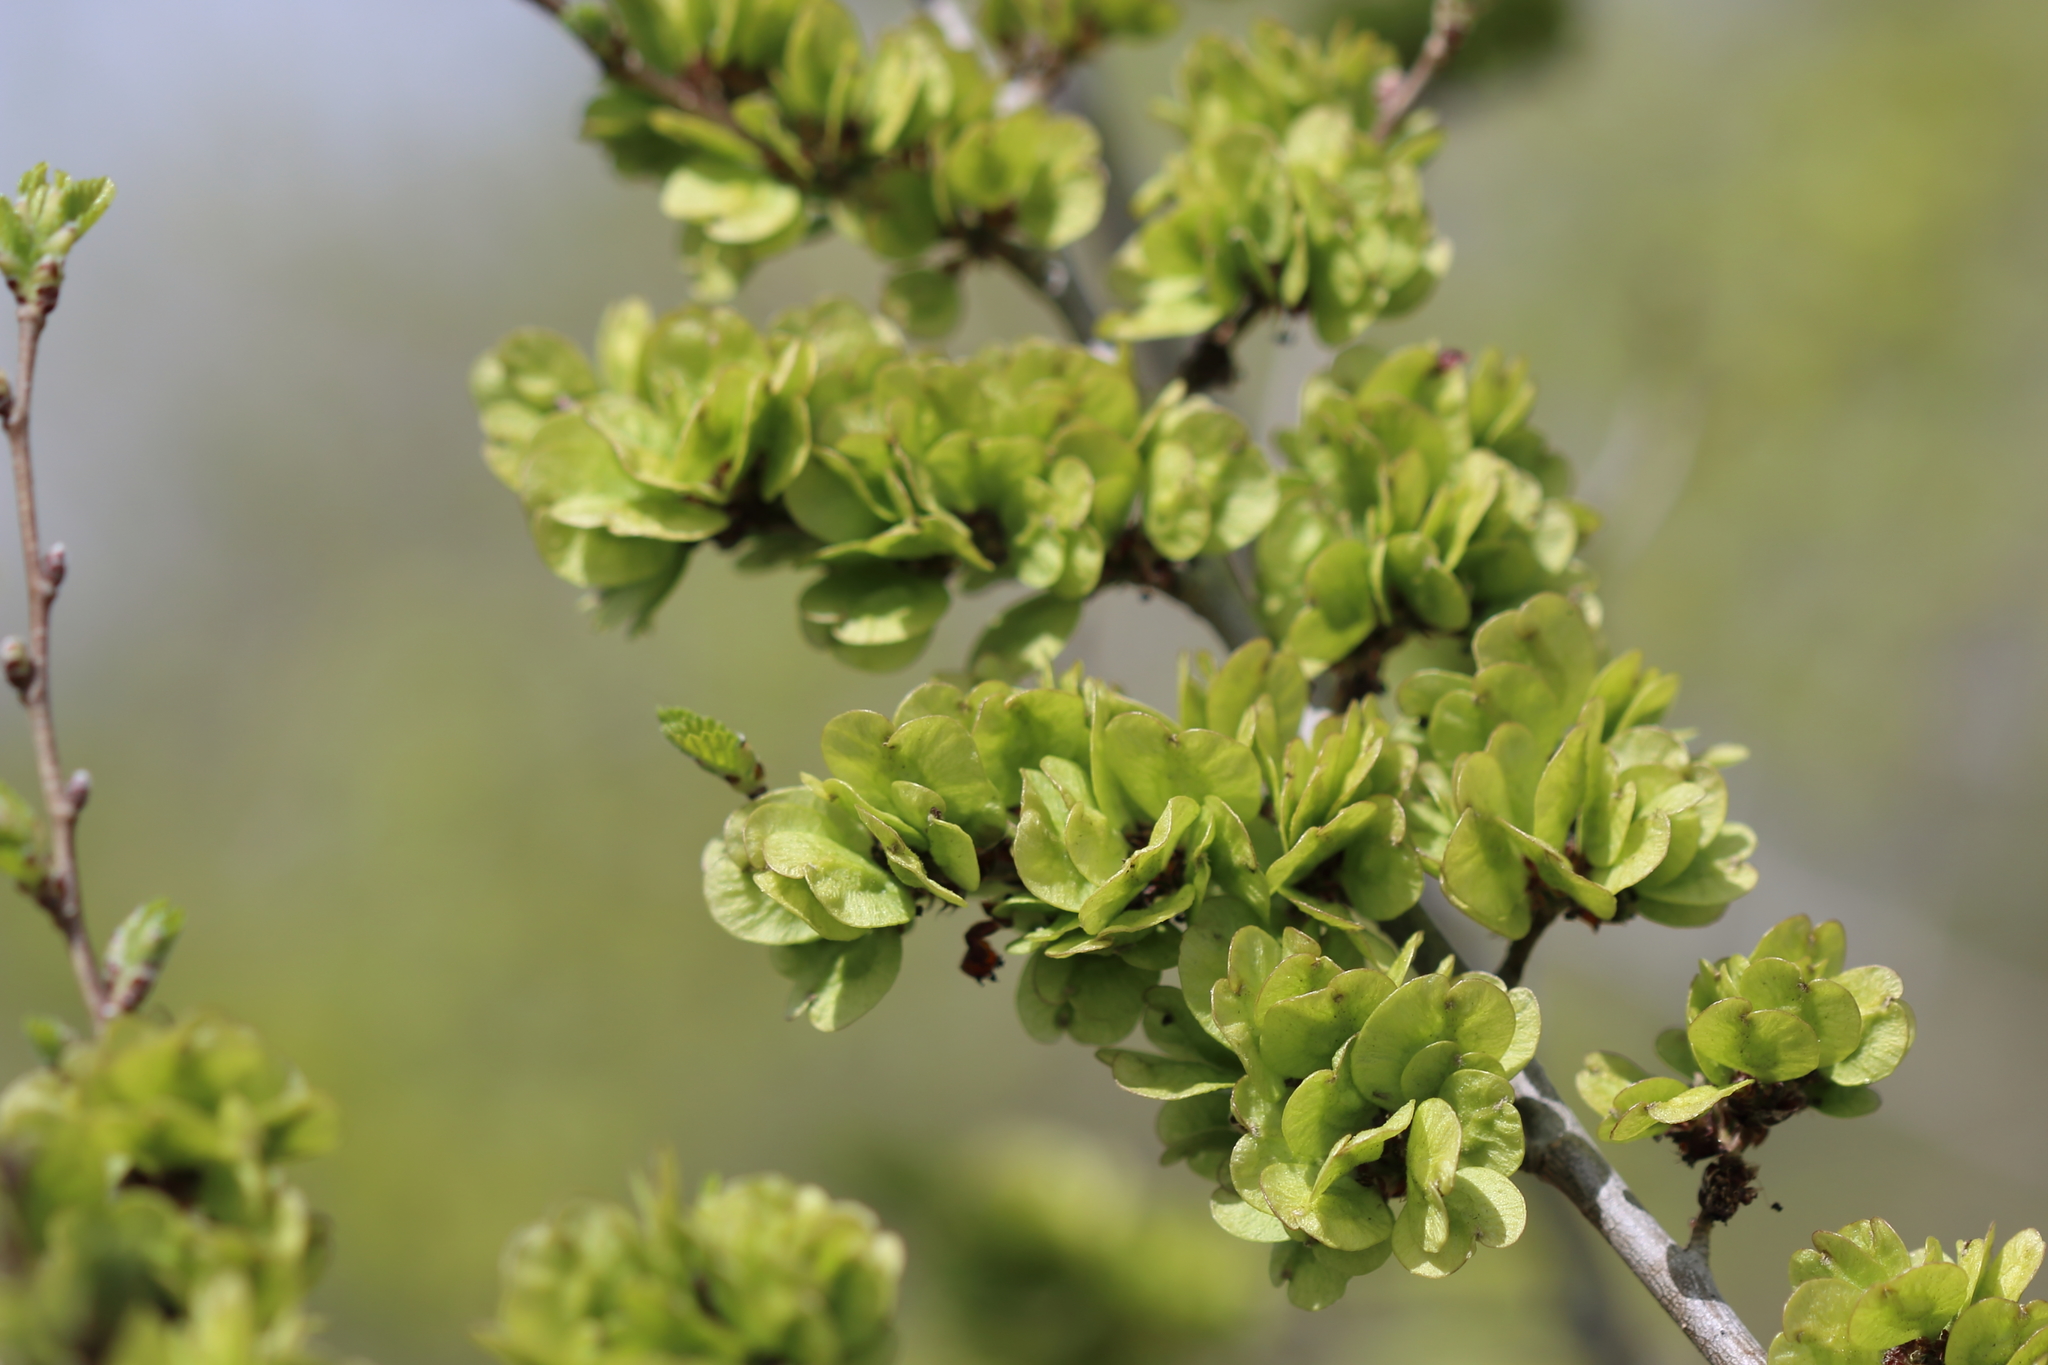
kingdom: Plantae
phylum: Tracheophyta
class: Magnoliopsida
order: Rosales
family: Ulmaceae
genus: Ulmus
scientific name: Ulmus pumila
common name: Siberian elm
